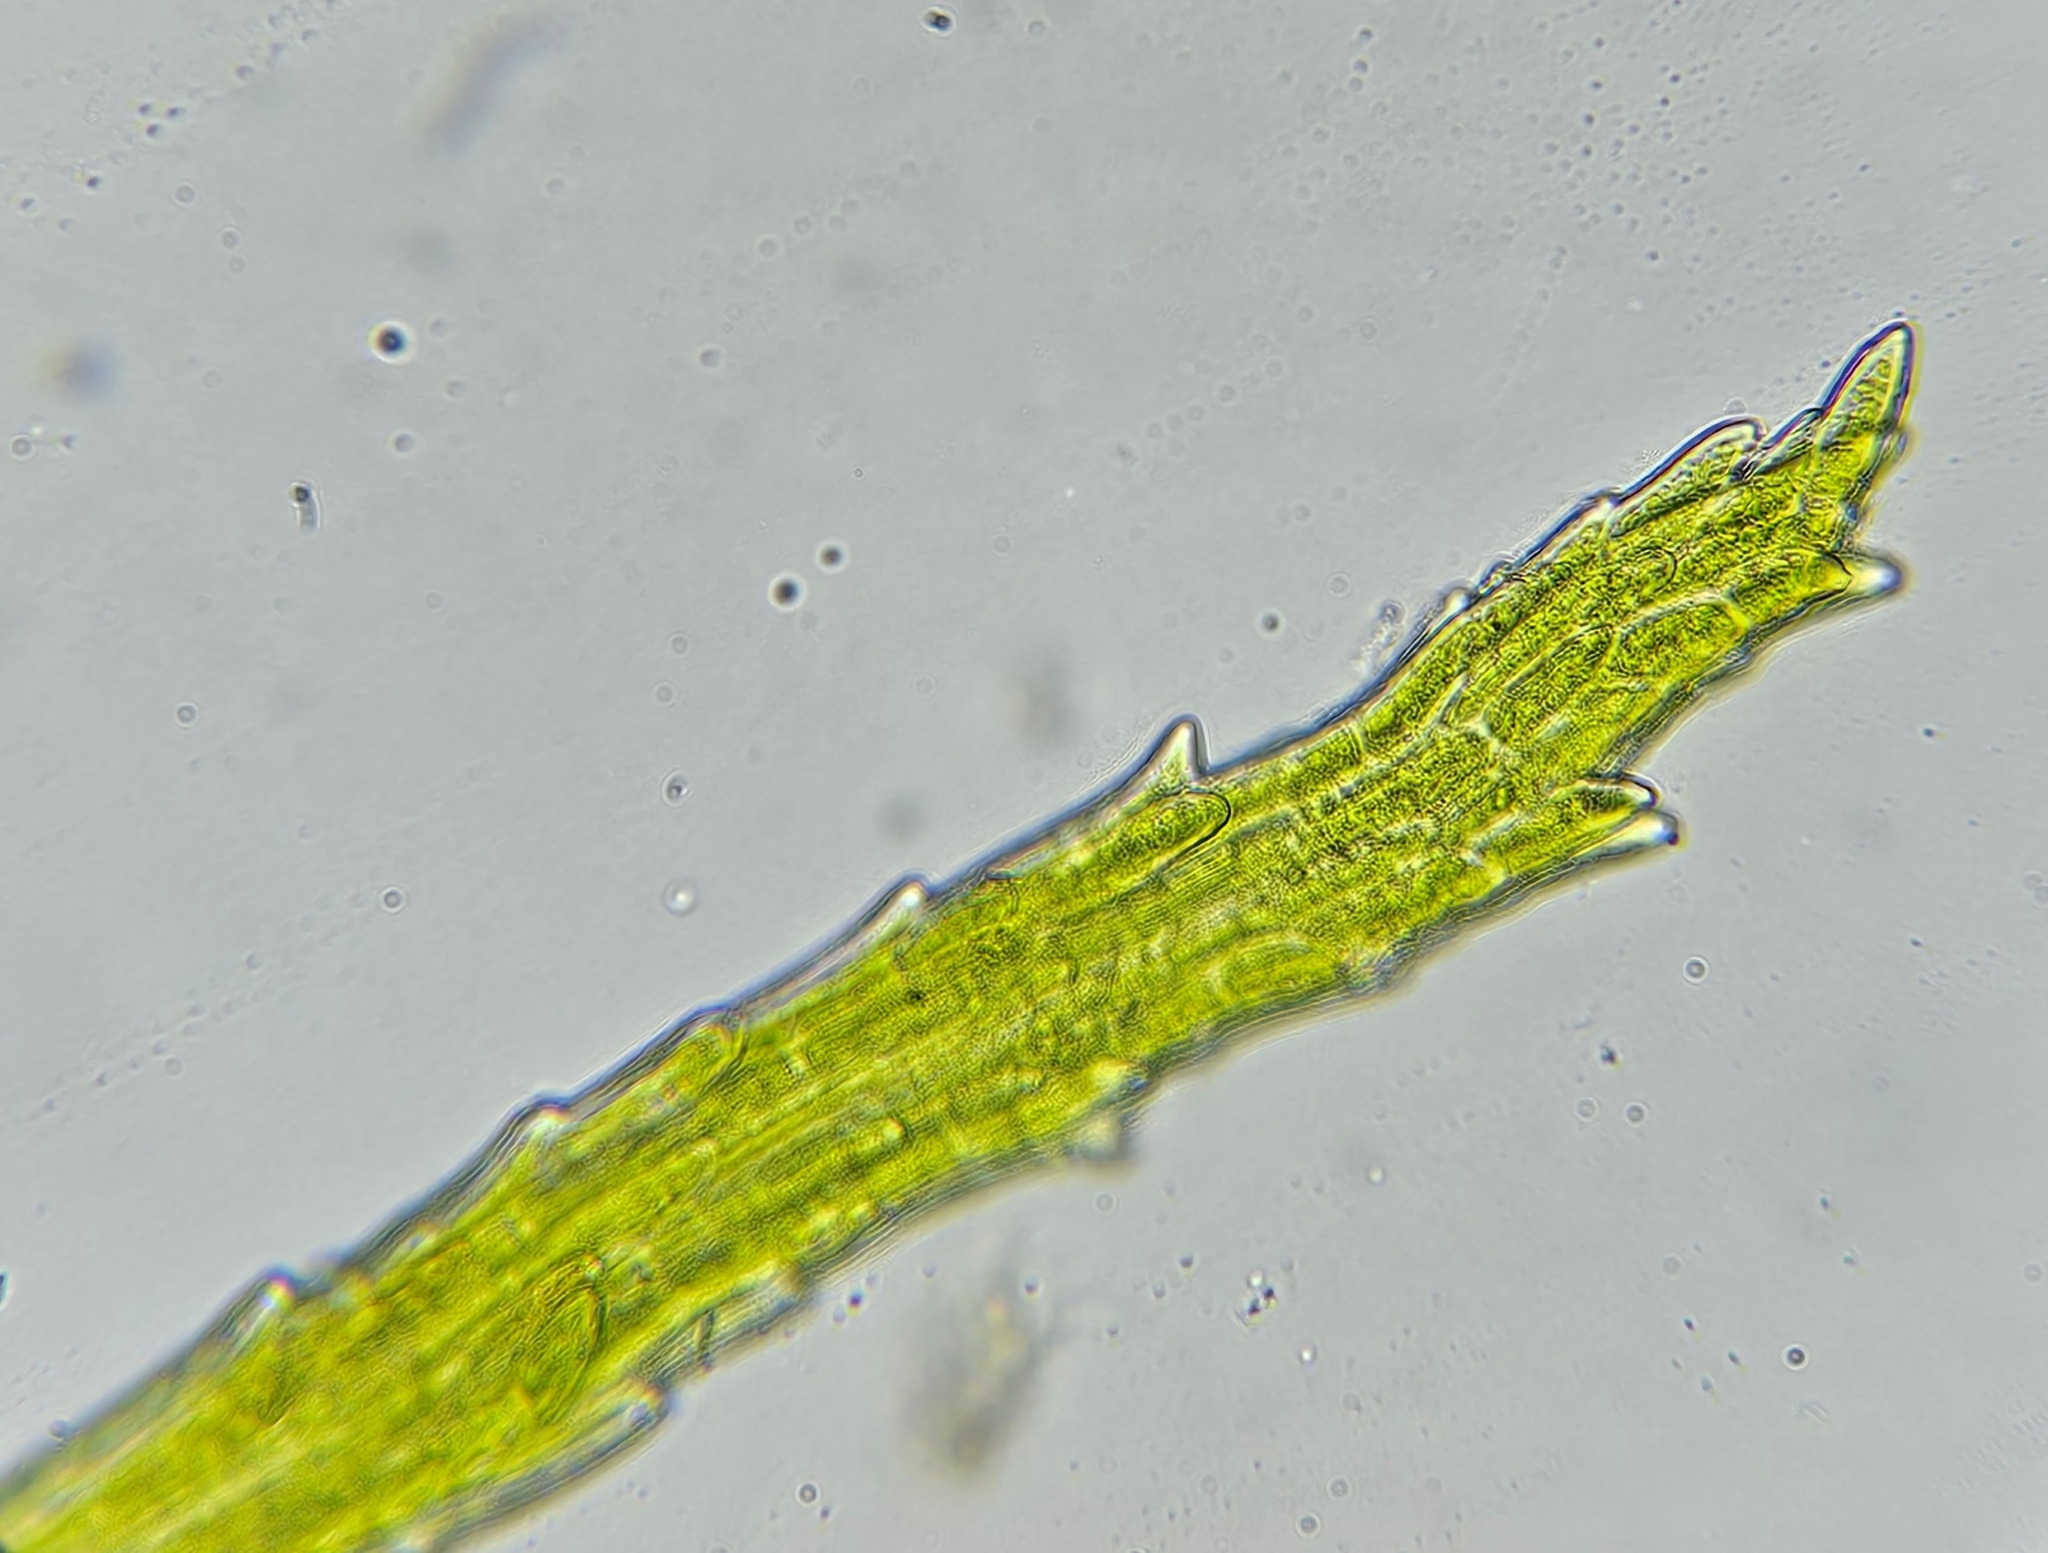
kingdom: Plantae
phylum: Bryophyta
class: Bryopsida
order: Dicranales
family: Dicranellaceae
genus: Dicranella
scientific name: Dicranella heteromalla
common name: Silky forklet moss
